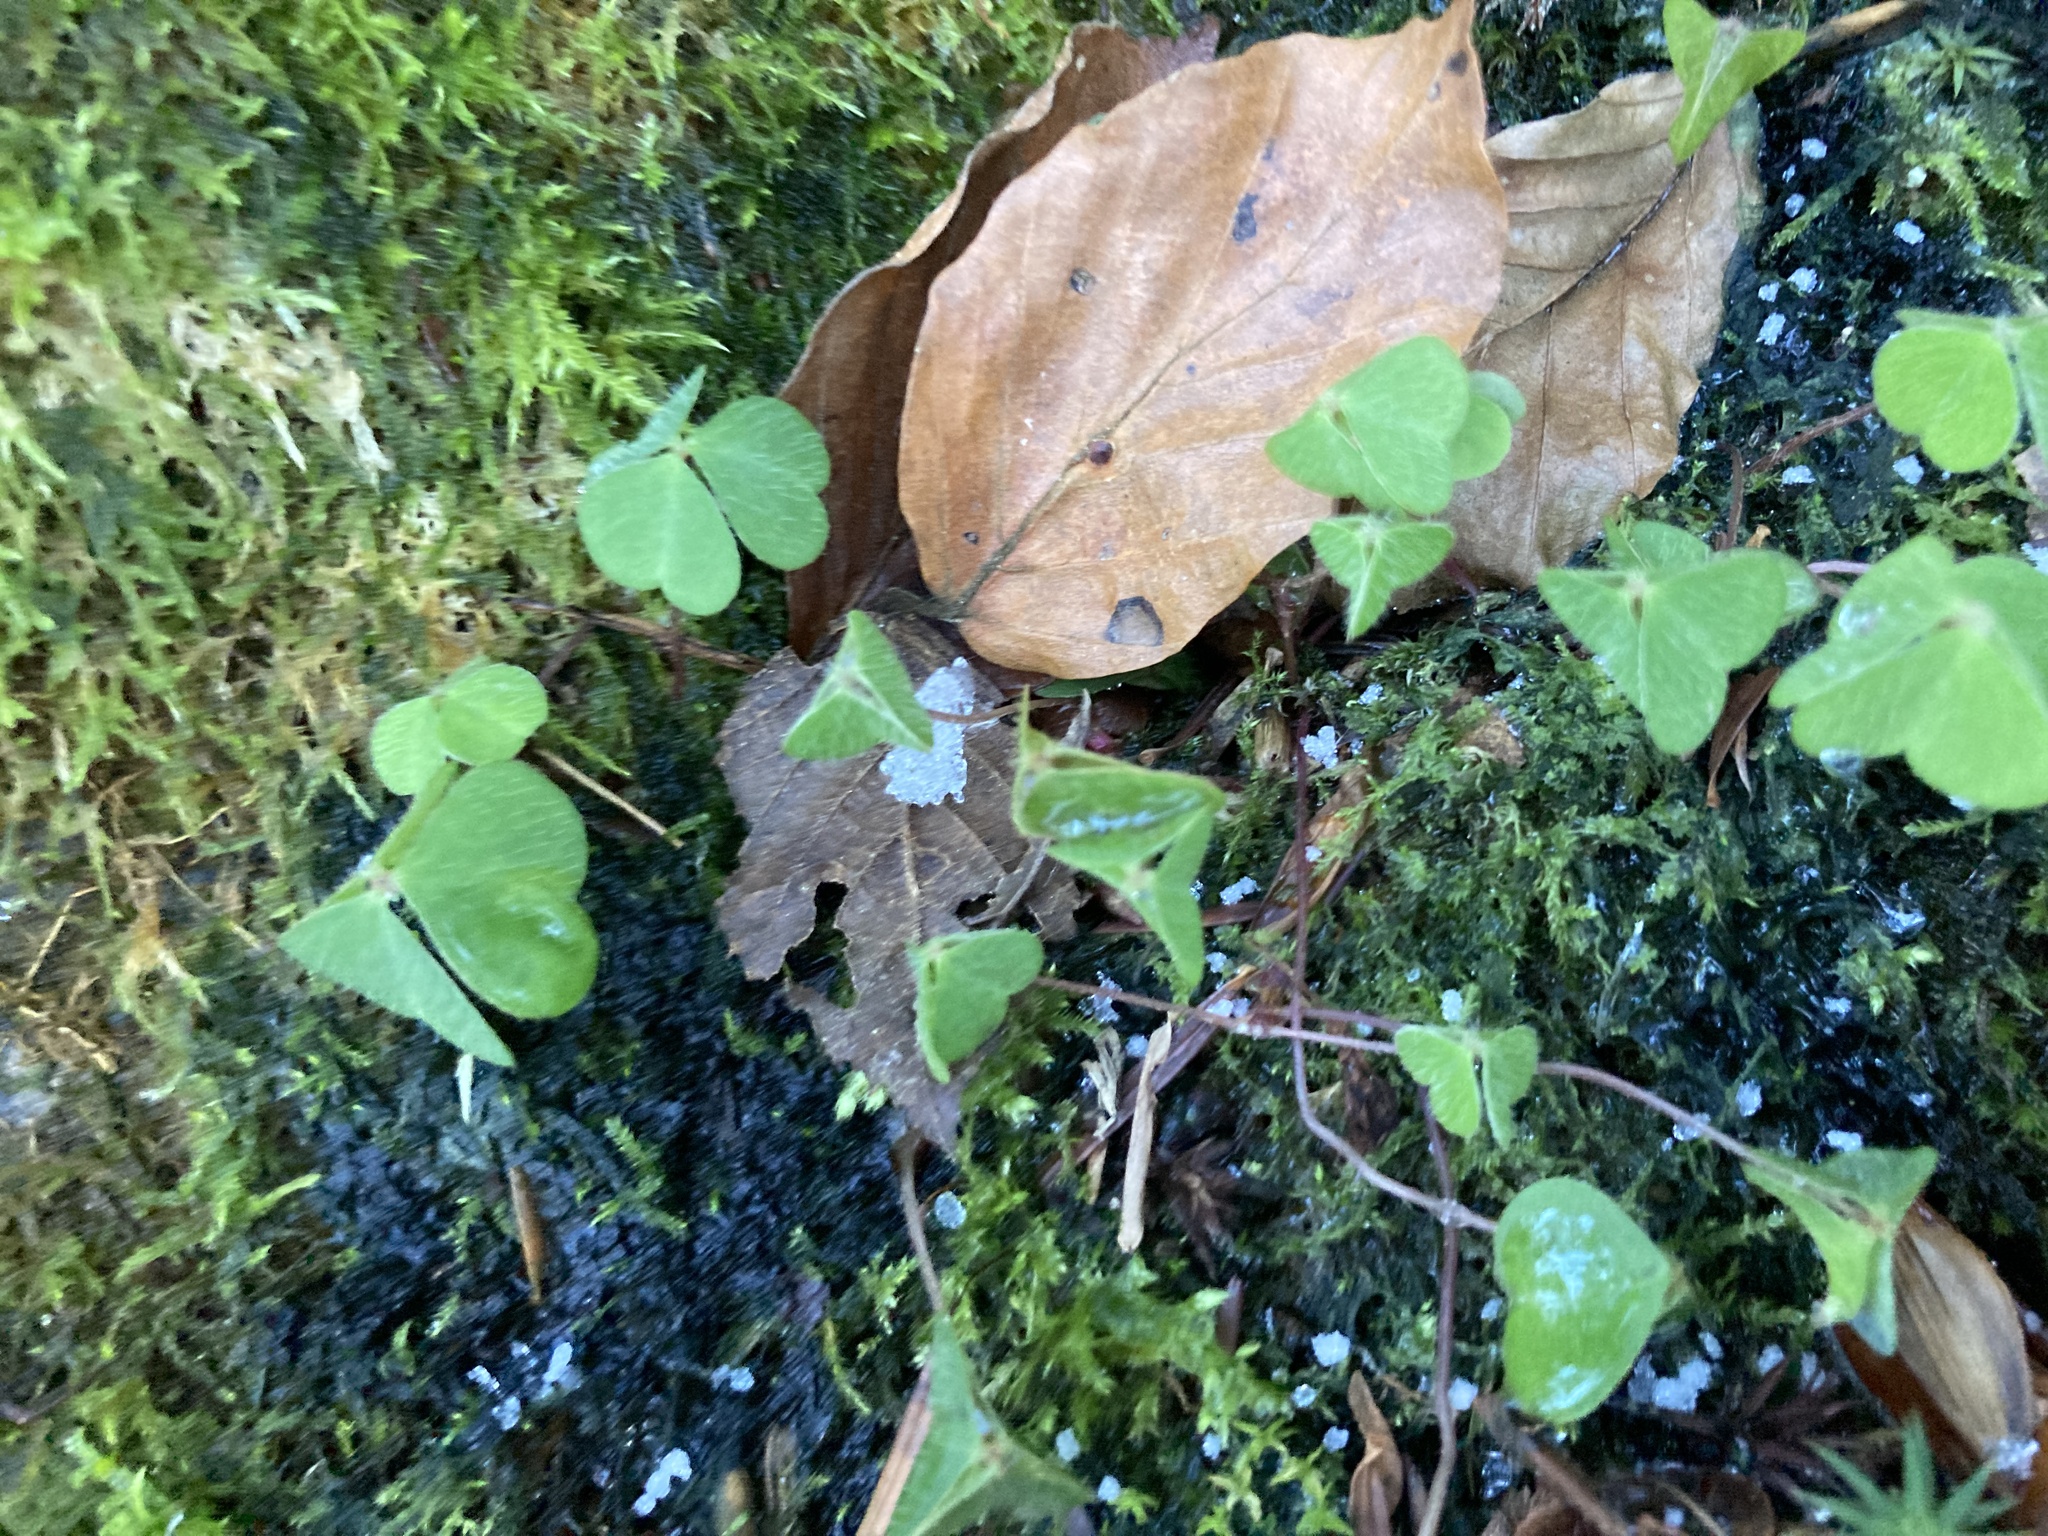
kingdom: Plantae
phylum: Tracheophyta
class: Magnoliopsida
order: Oxalidales
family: Oxalidaceae
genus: Oxalis
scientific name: Oxalis acetosella
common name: Wood-sorrel
